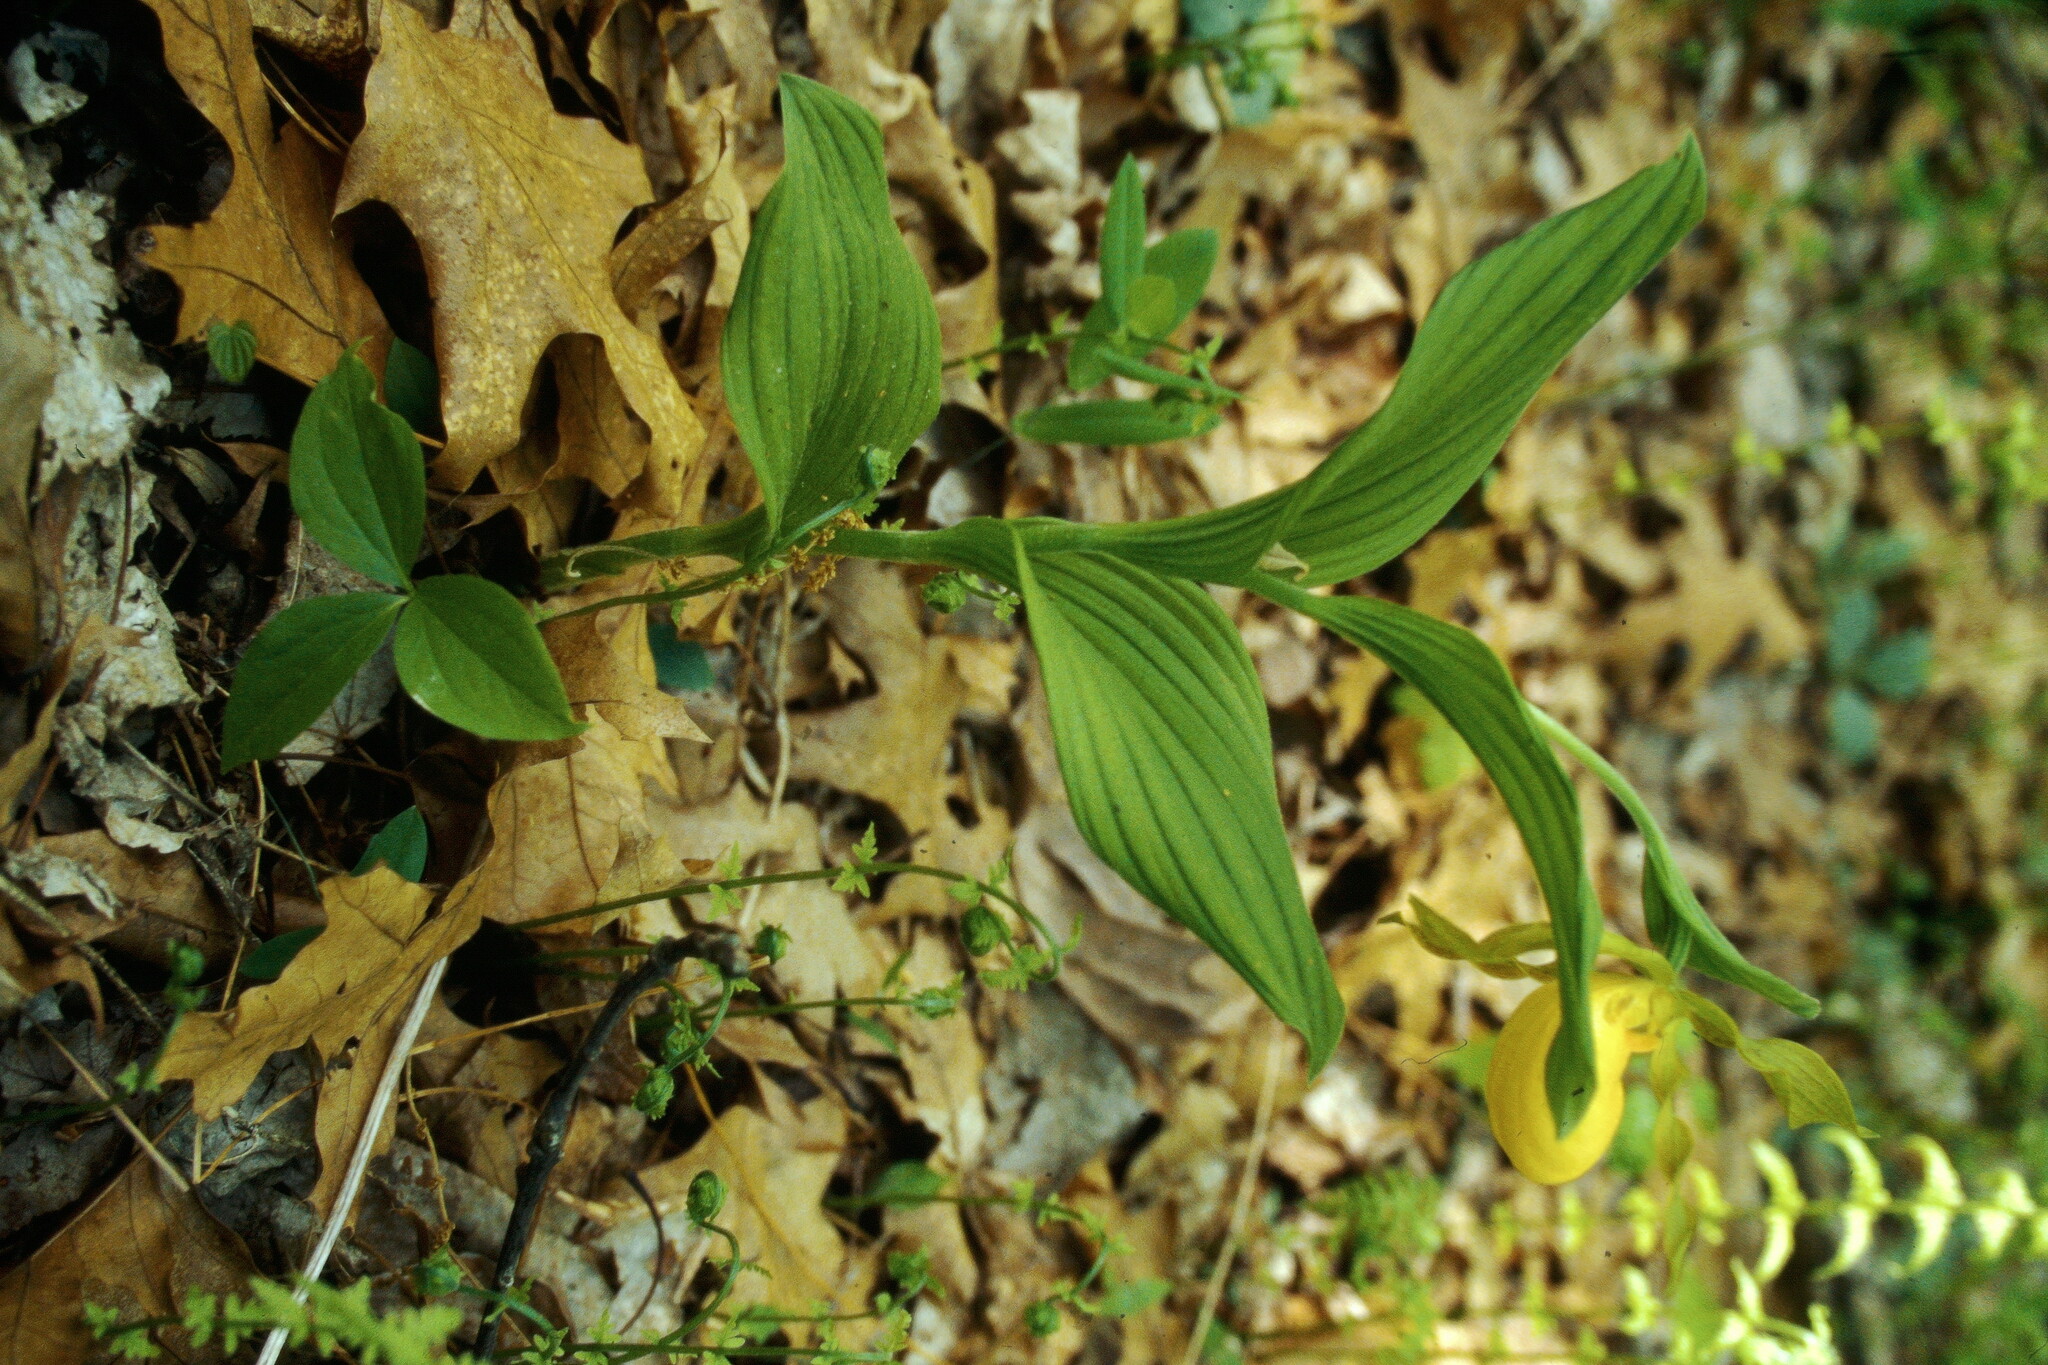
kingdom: Plantae
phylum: Tracheophyta
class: Liliopsida
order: Asparagales
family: Orchidaceae
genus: Cypripedium
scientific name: Cypripedium parviflorum
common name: American yellow lady's-slipper
